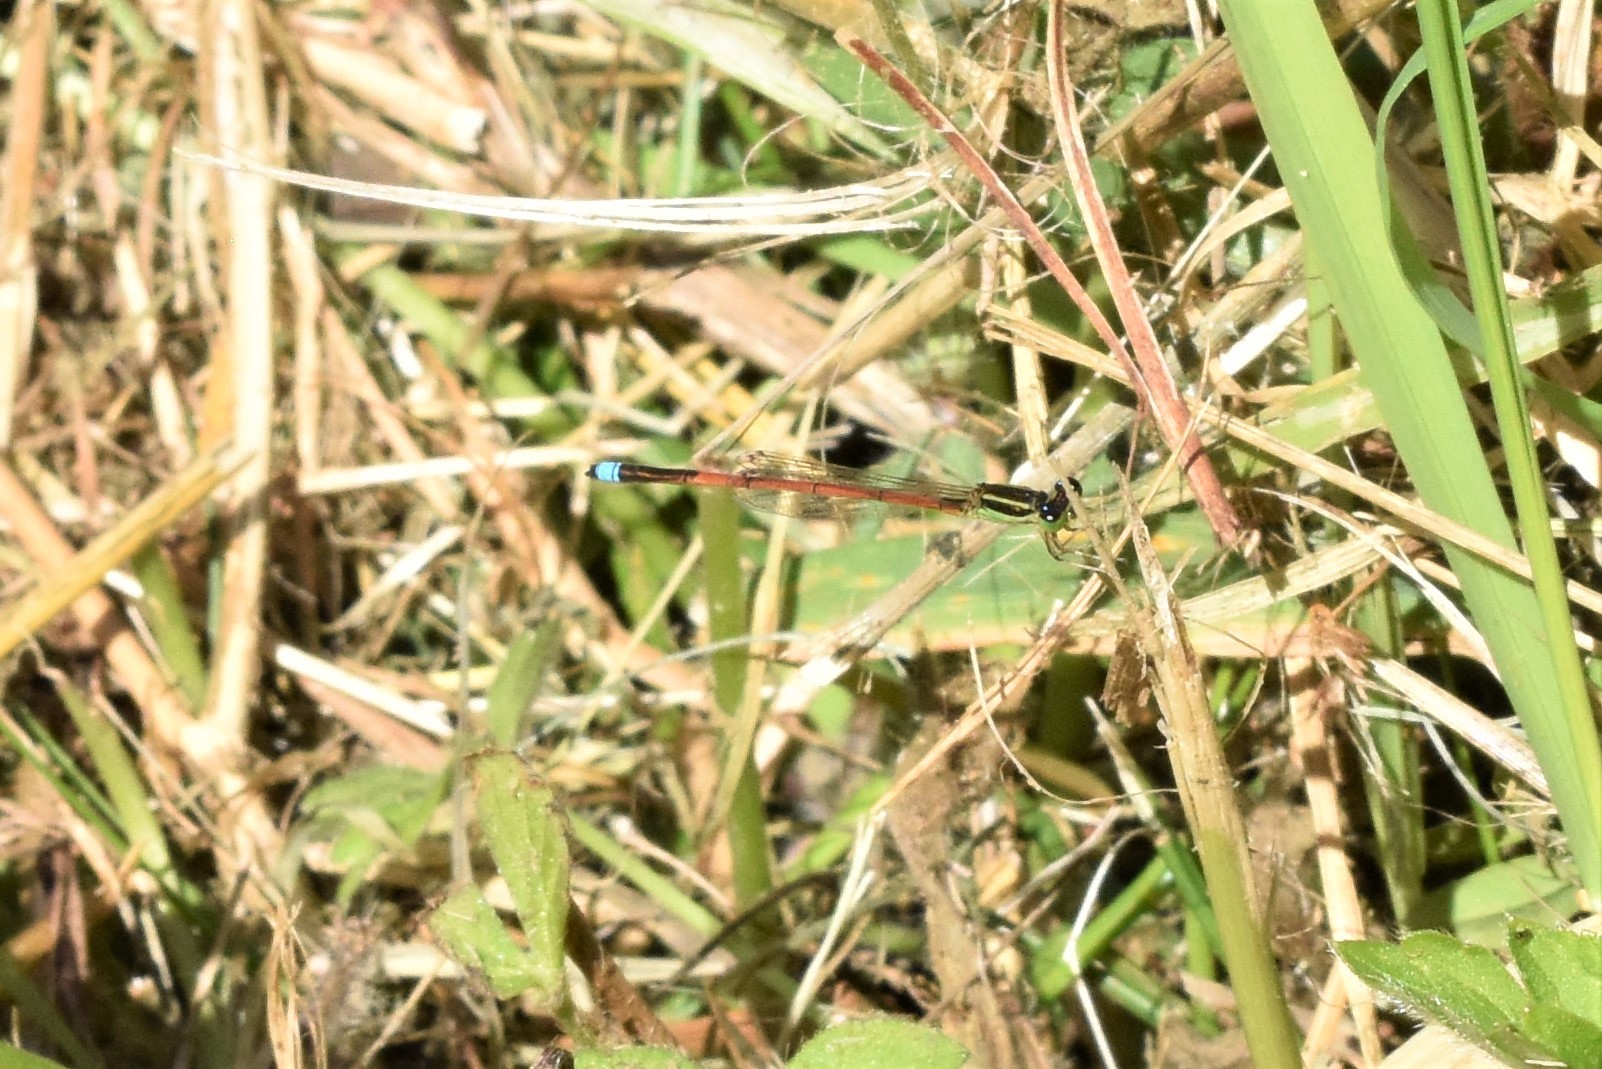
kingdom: Animalia
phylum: Arthropoda
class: Insecta
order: Odonata
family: Coenagrionidae
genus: Ischnura
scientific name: Ischnura aurora
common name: Gossamer damselfly
